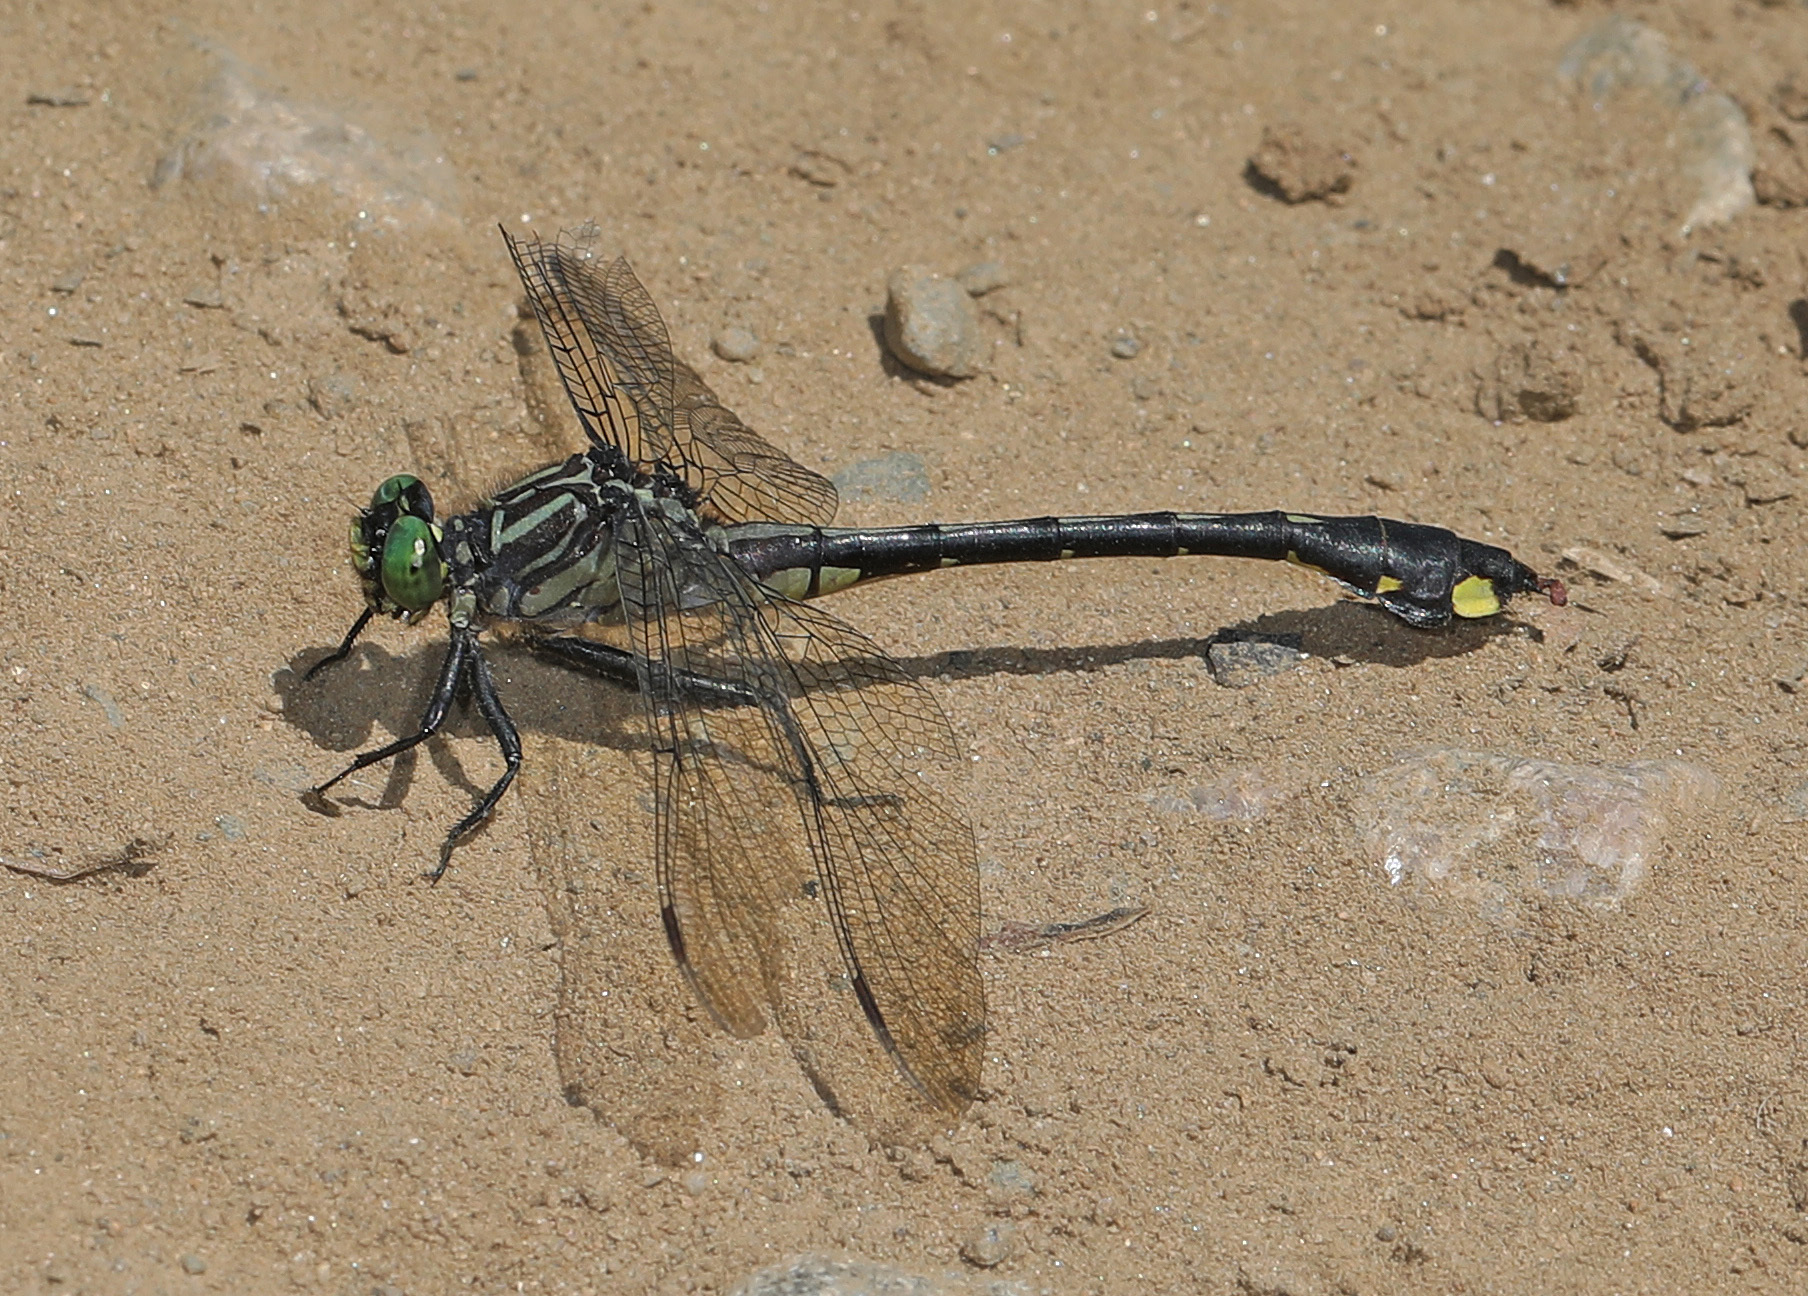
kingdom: Animalia
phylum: Arthropoda
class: Insecta
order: Odonata
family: Gomphidae
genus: Gomphurus
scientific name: Gomphurus vastus
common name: Cobra clubtail
